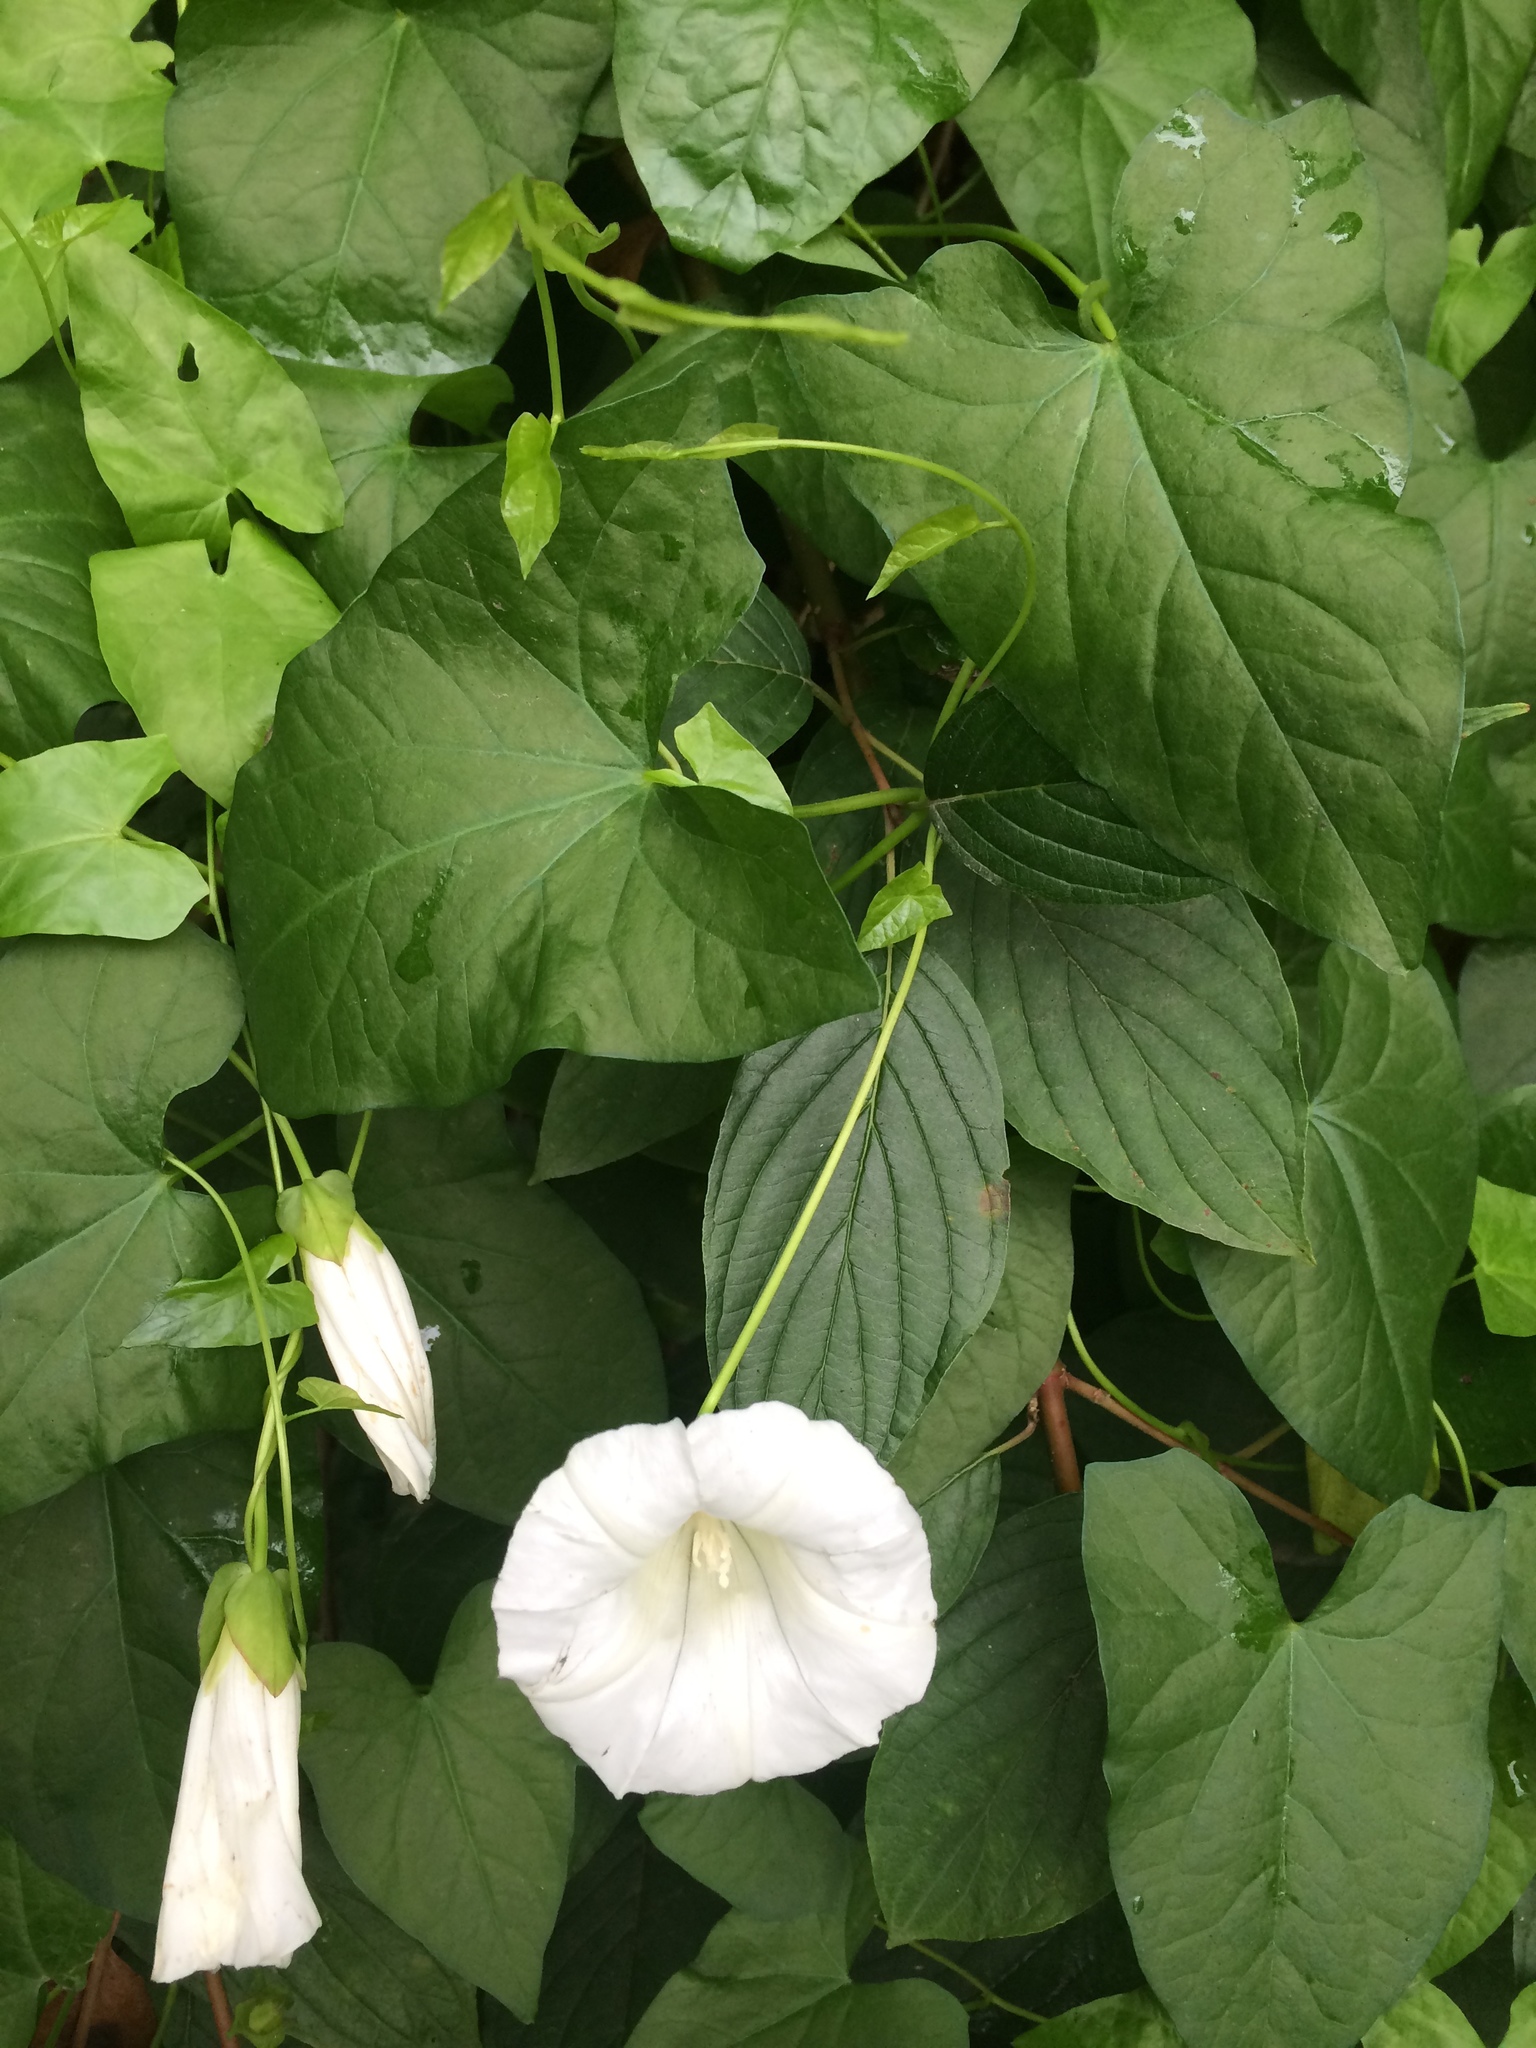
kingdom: Plantae
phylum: Tracheophyta
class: Magnoliopsida
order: Solanales
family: Convolvulaceae
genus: Calystegia
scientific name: Calystegia sepium
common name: Hedge bindweed
